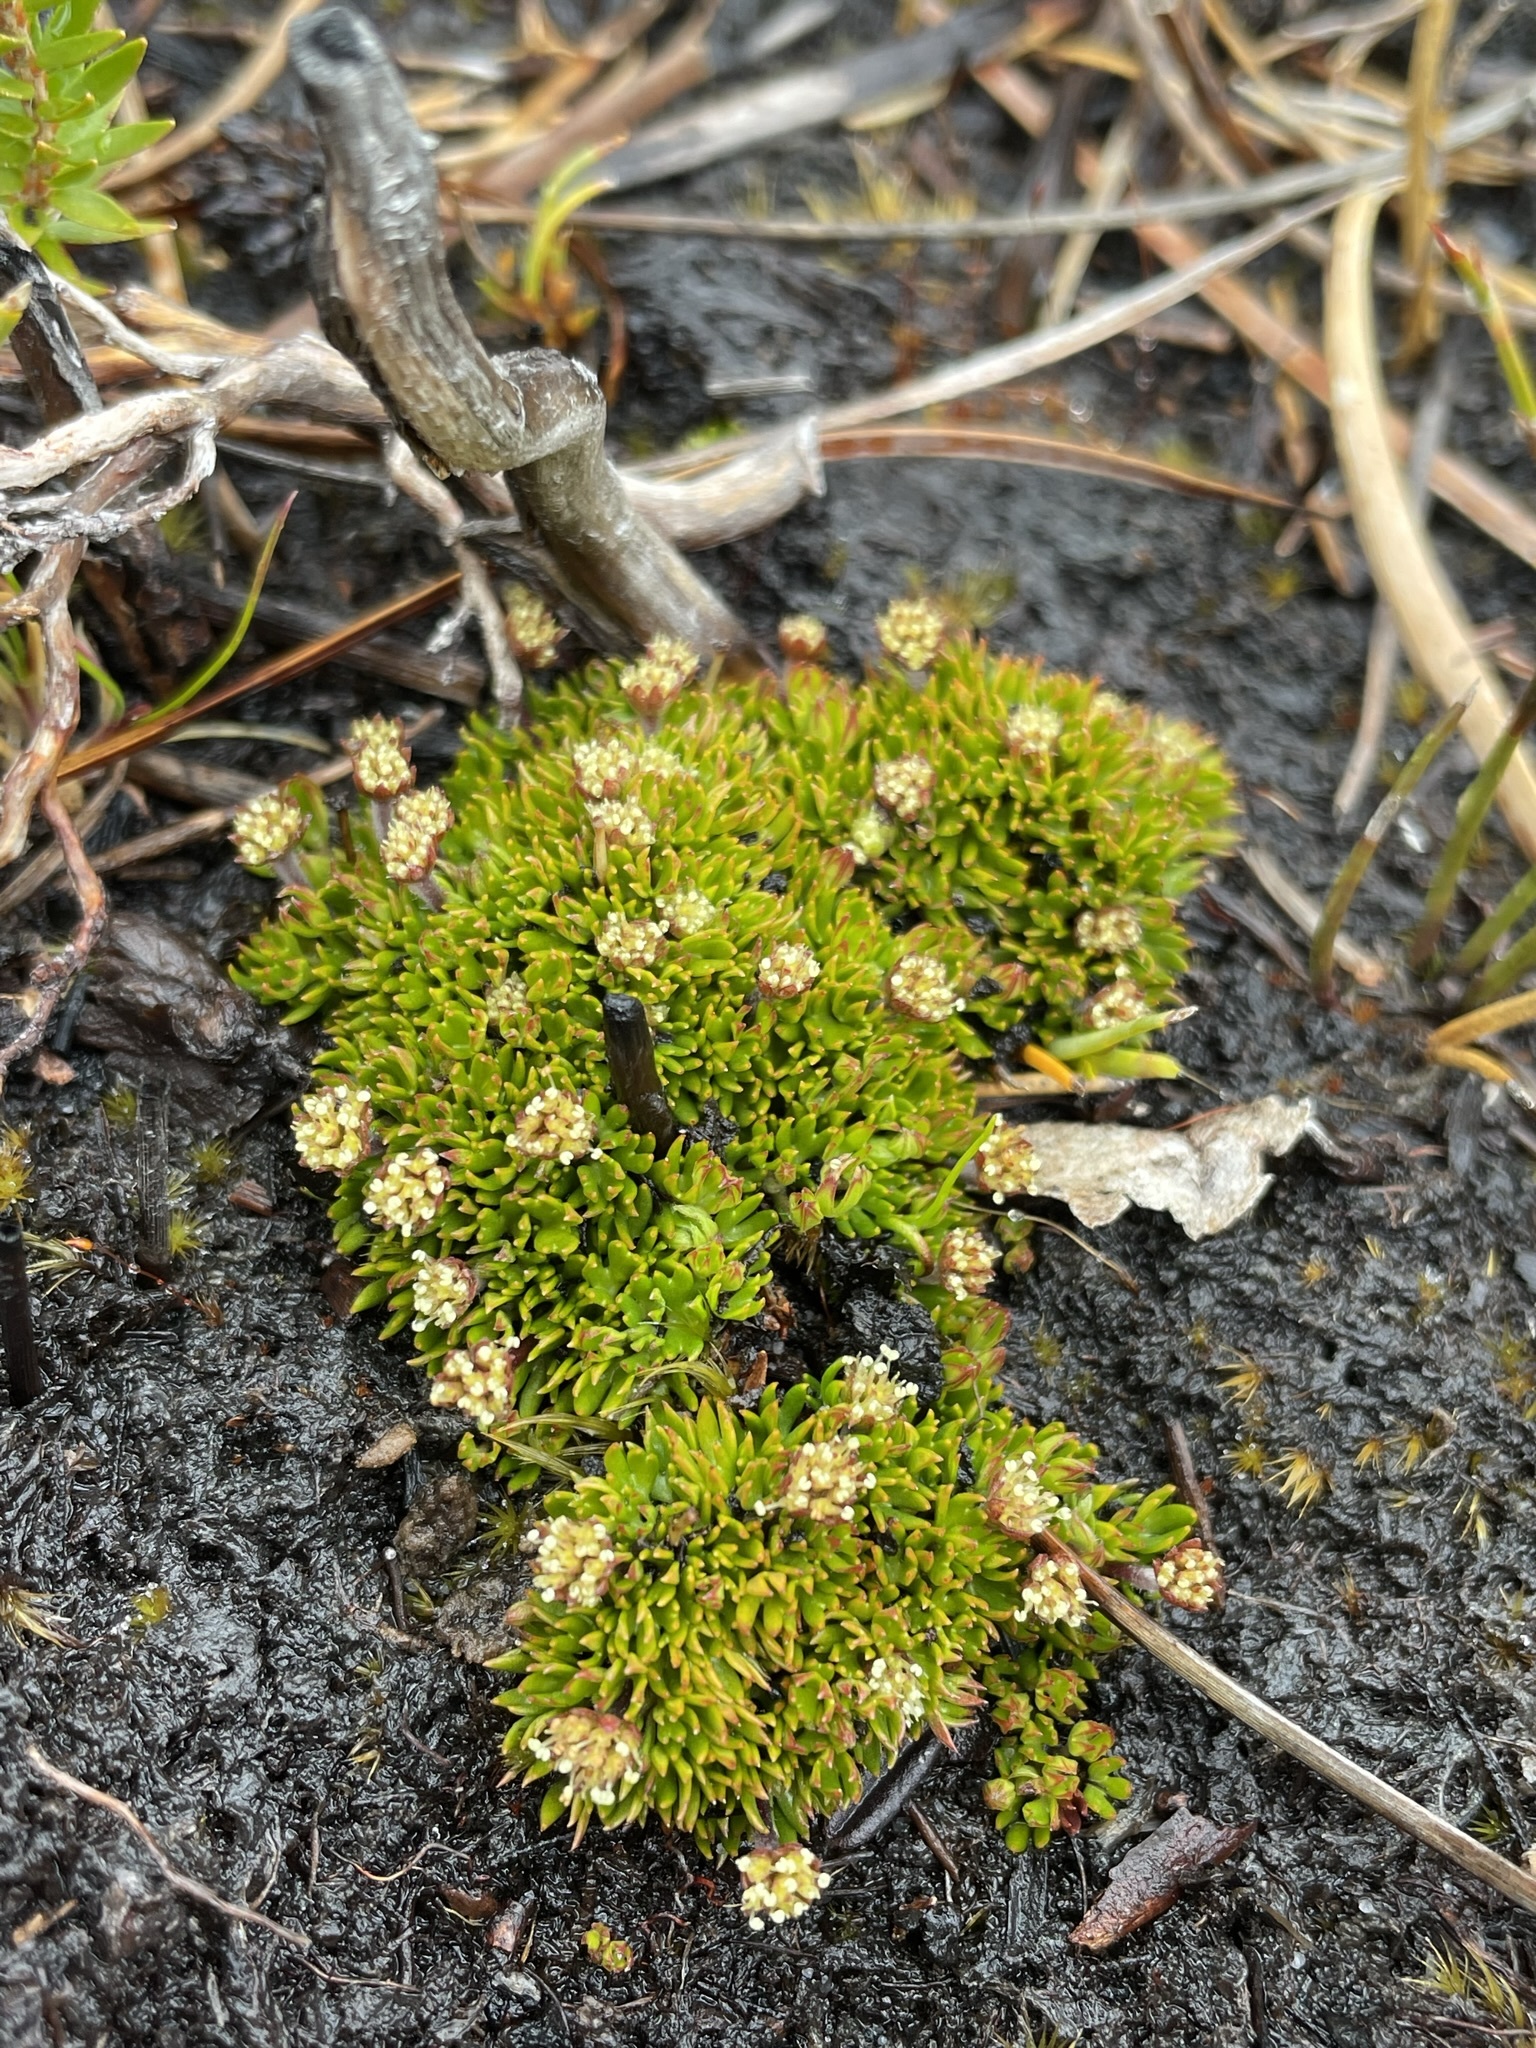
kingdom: Plantae
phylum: Tracheophyta
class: Magnoliopsida
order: Apiales
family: Apiaceae
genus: Actinotus
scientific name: Actinotus moorei
